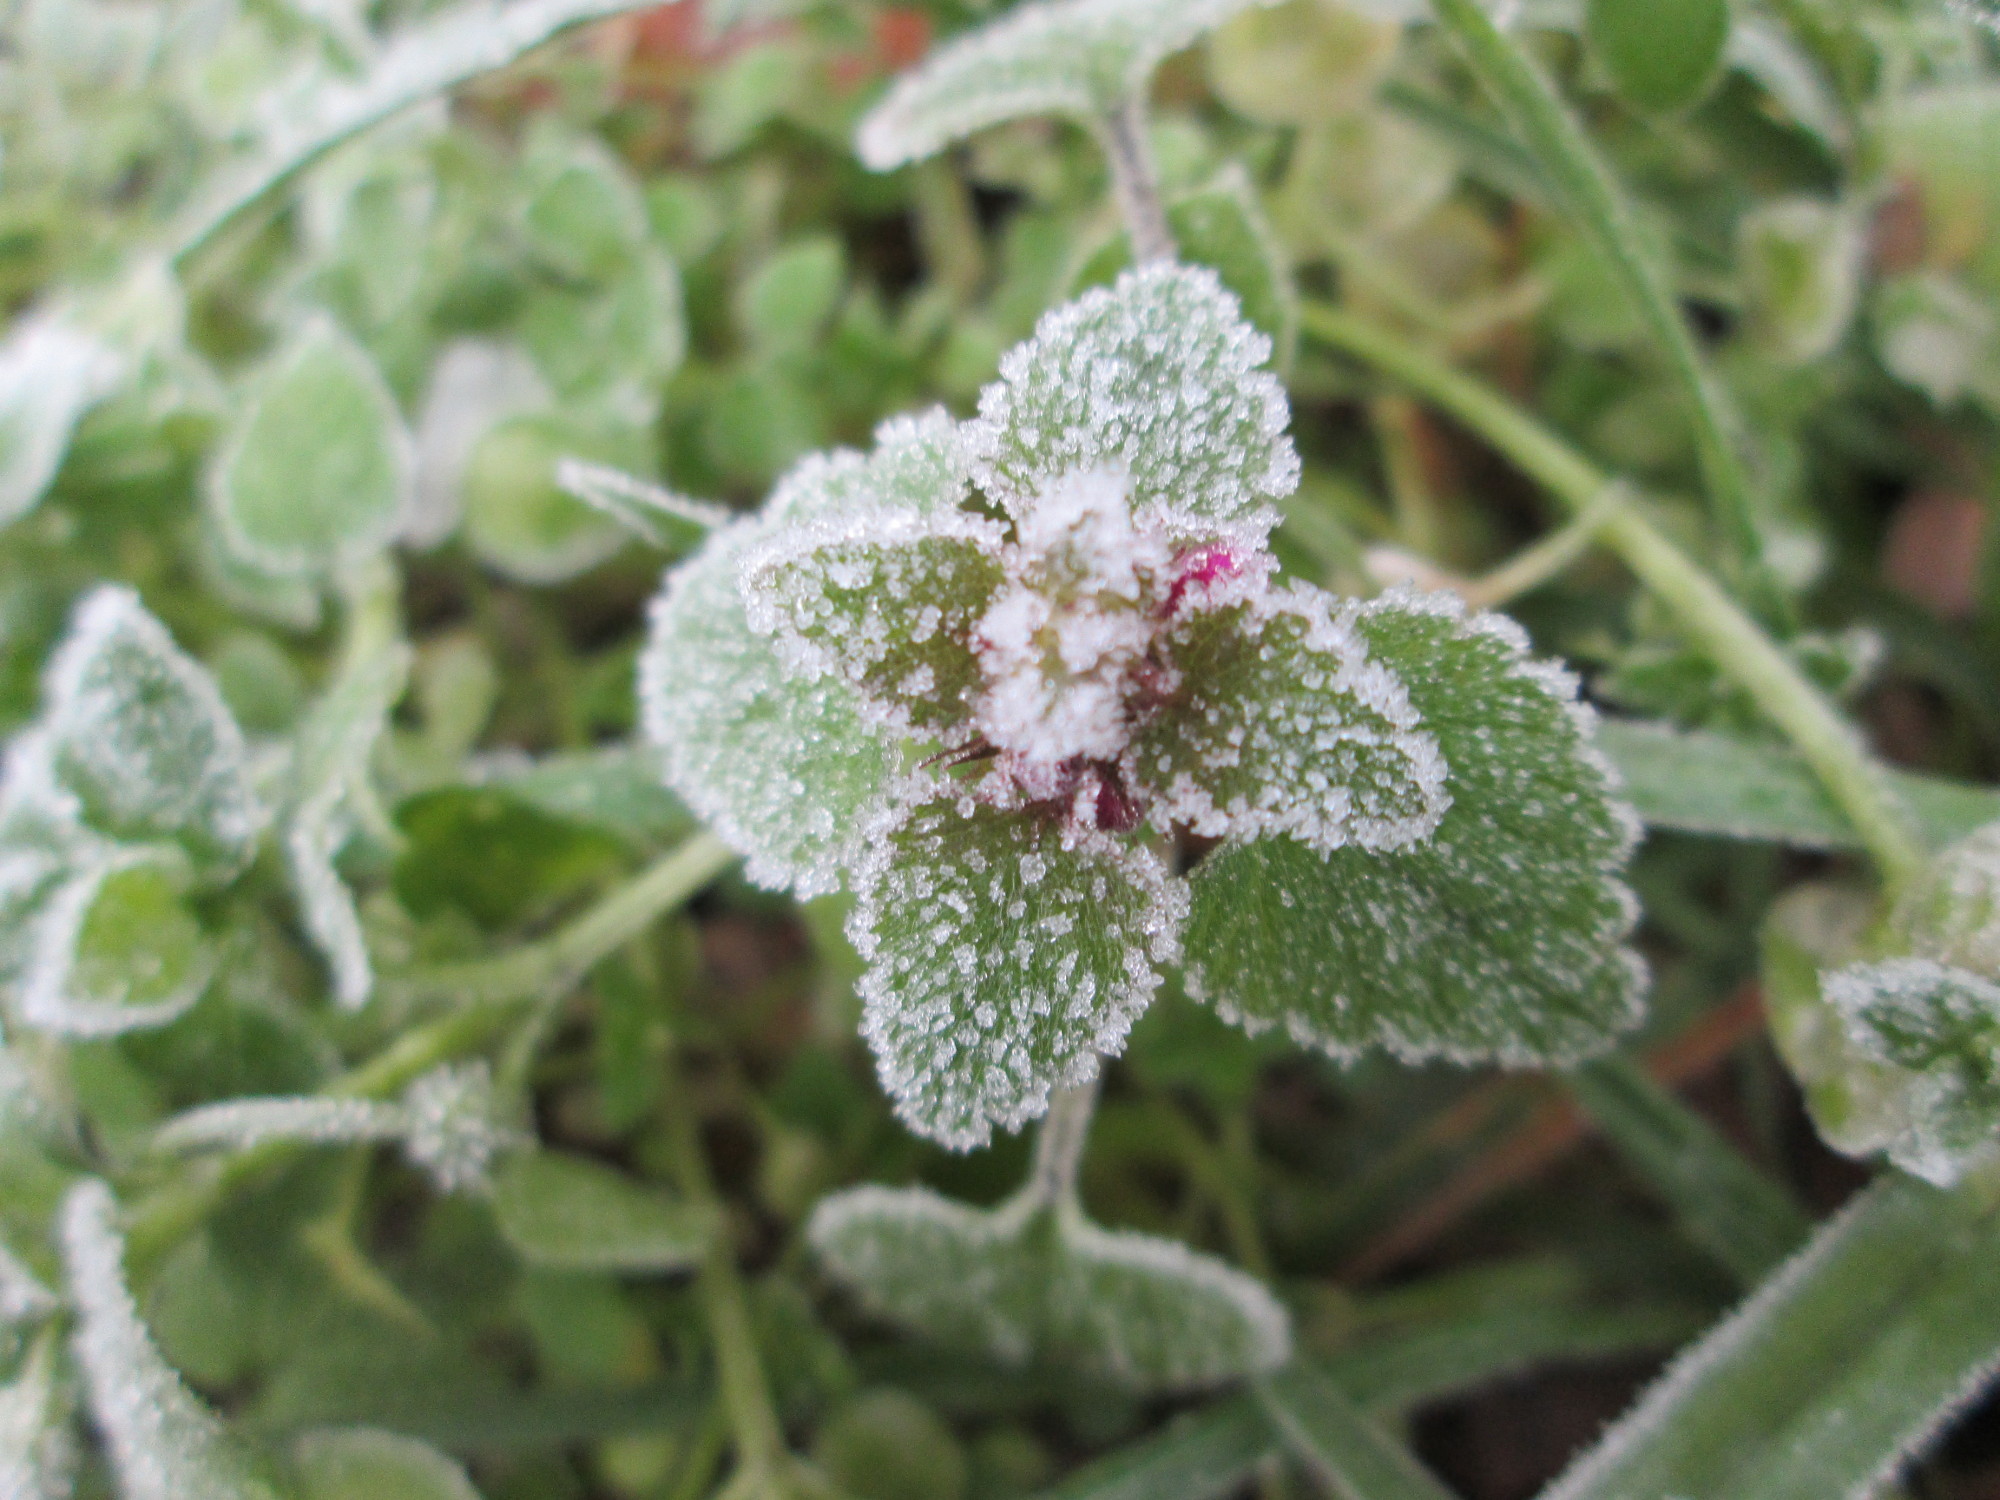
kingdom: Plantae
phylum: Tracheophyta
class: Magnoliopsida
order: Lamiales
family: Lamiaceae
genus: Lamium
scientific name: Lamium purpureum
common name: Red dead-nettle
